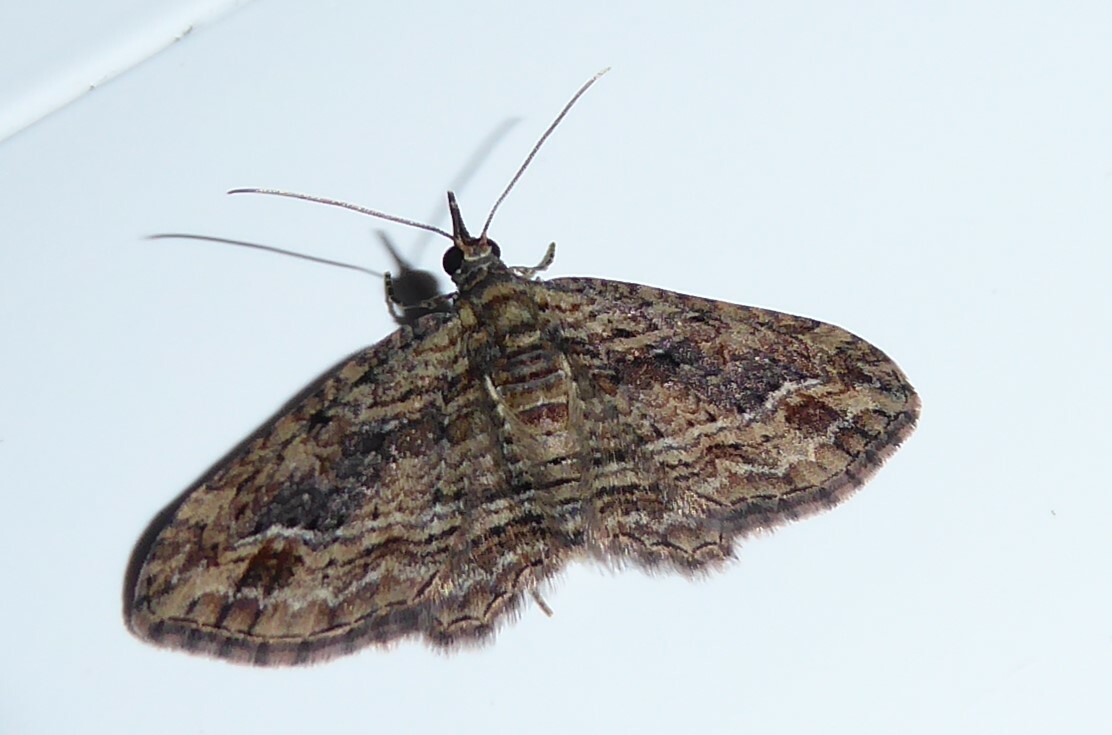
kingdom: Animalia
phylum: Arthropoda
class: Insecta
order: Lepidoptera
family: Geometridae
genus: Chloroclystis
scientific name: Chloroclystis filata
